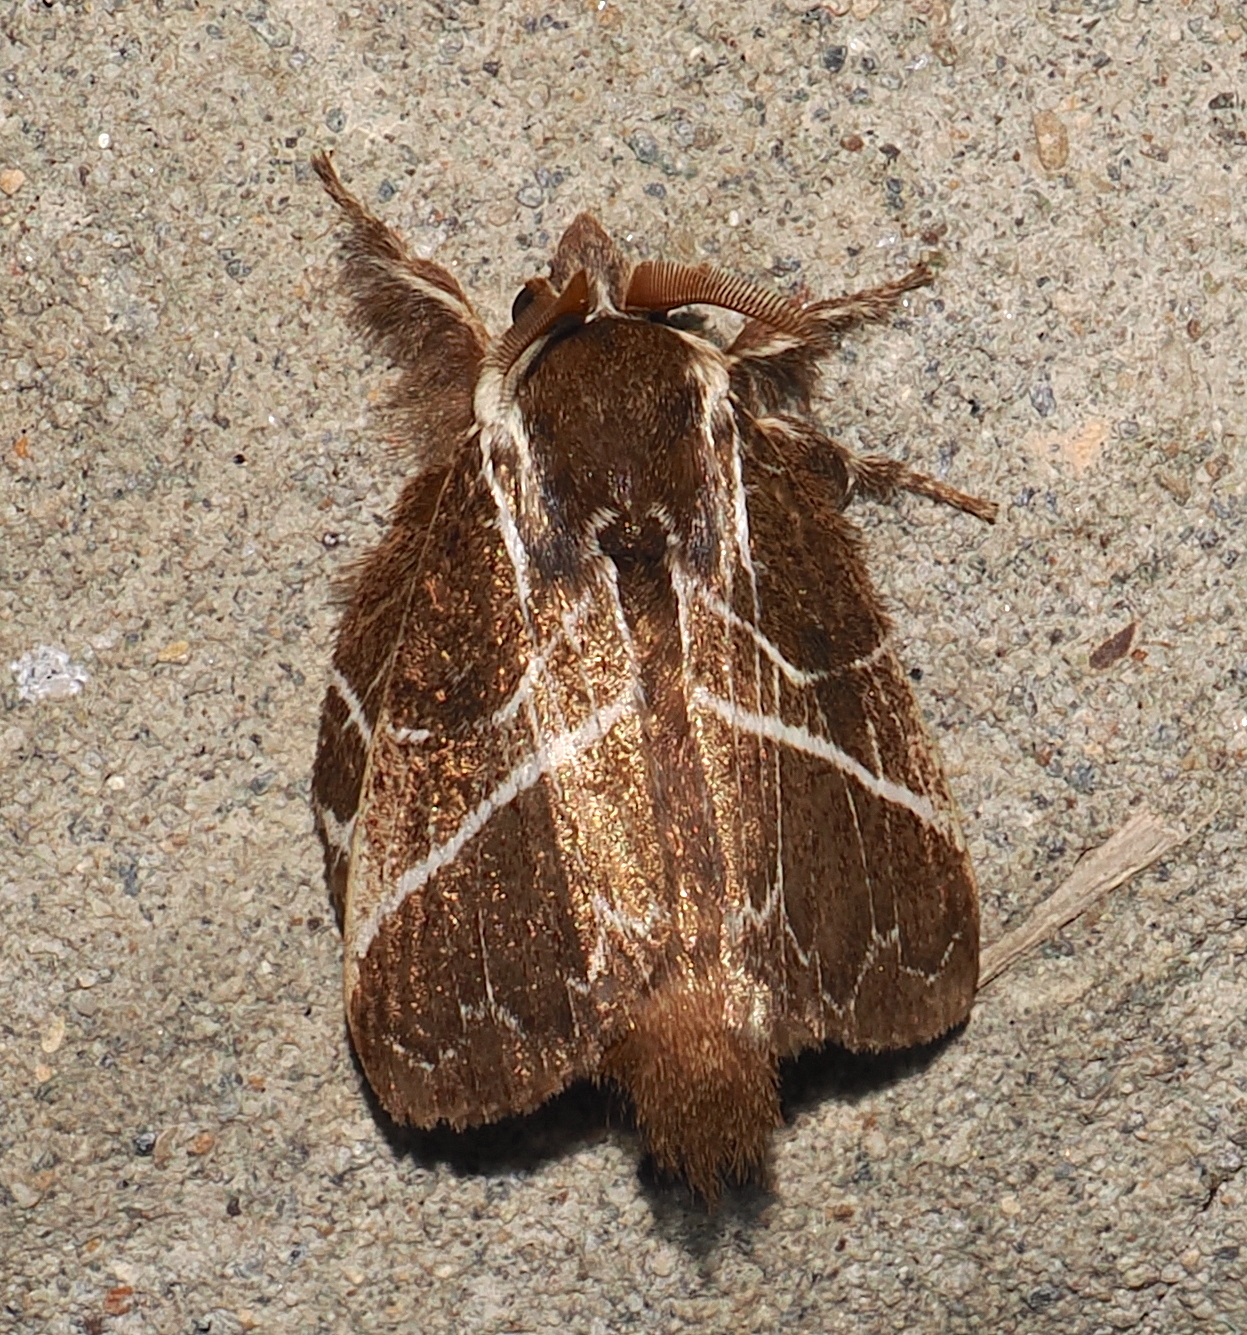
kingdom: Animalia
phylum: Arthropoda
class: Insecta
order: Lepidoptera
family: Lasiocampidae
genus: Euglyphis
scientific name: Euglyphis laudia
